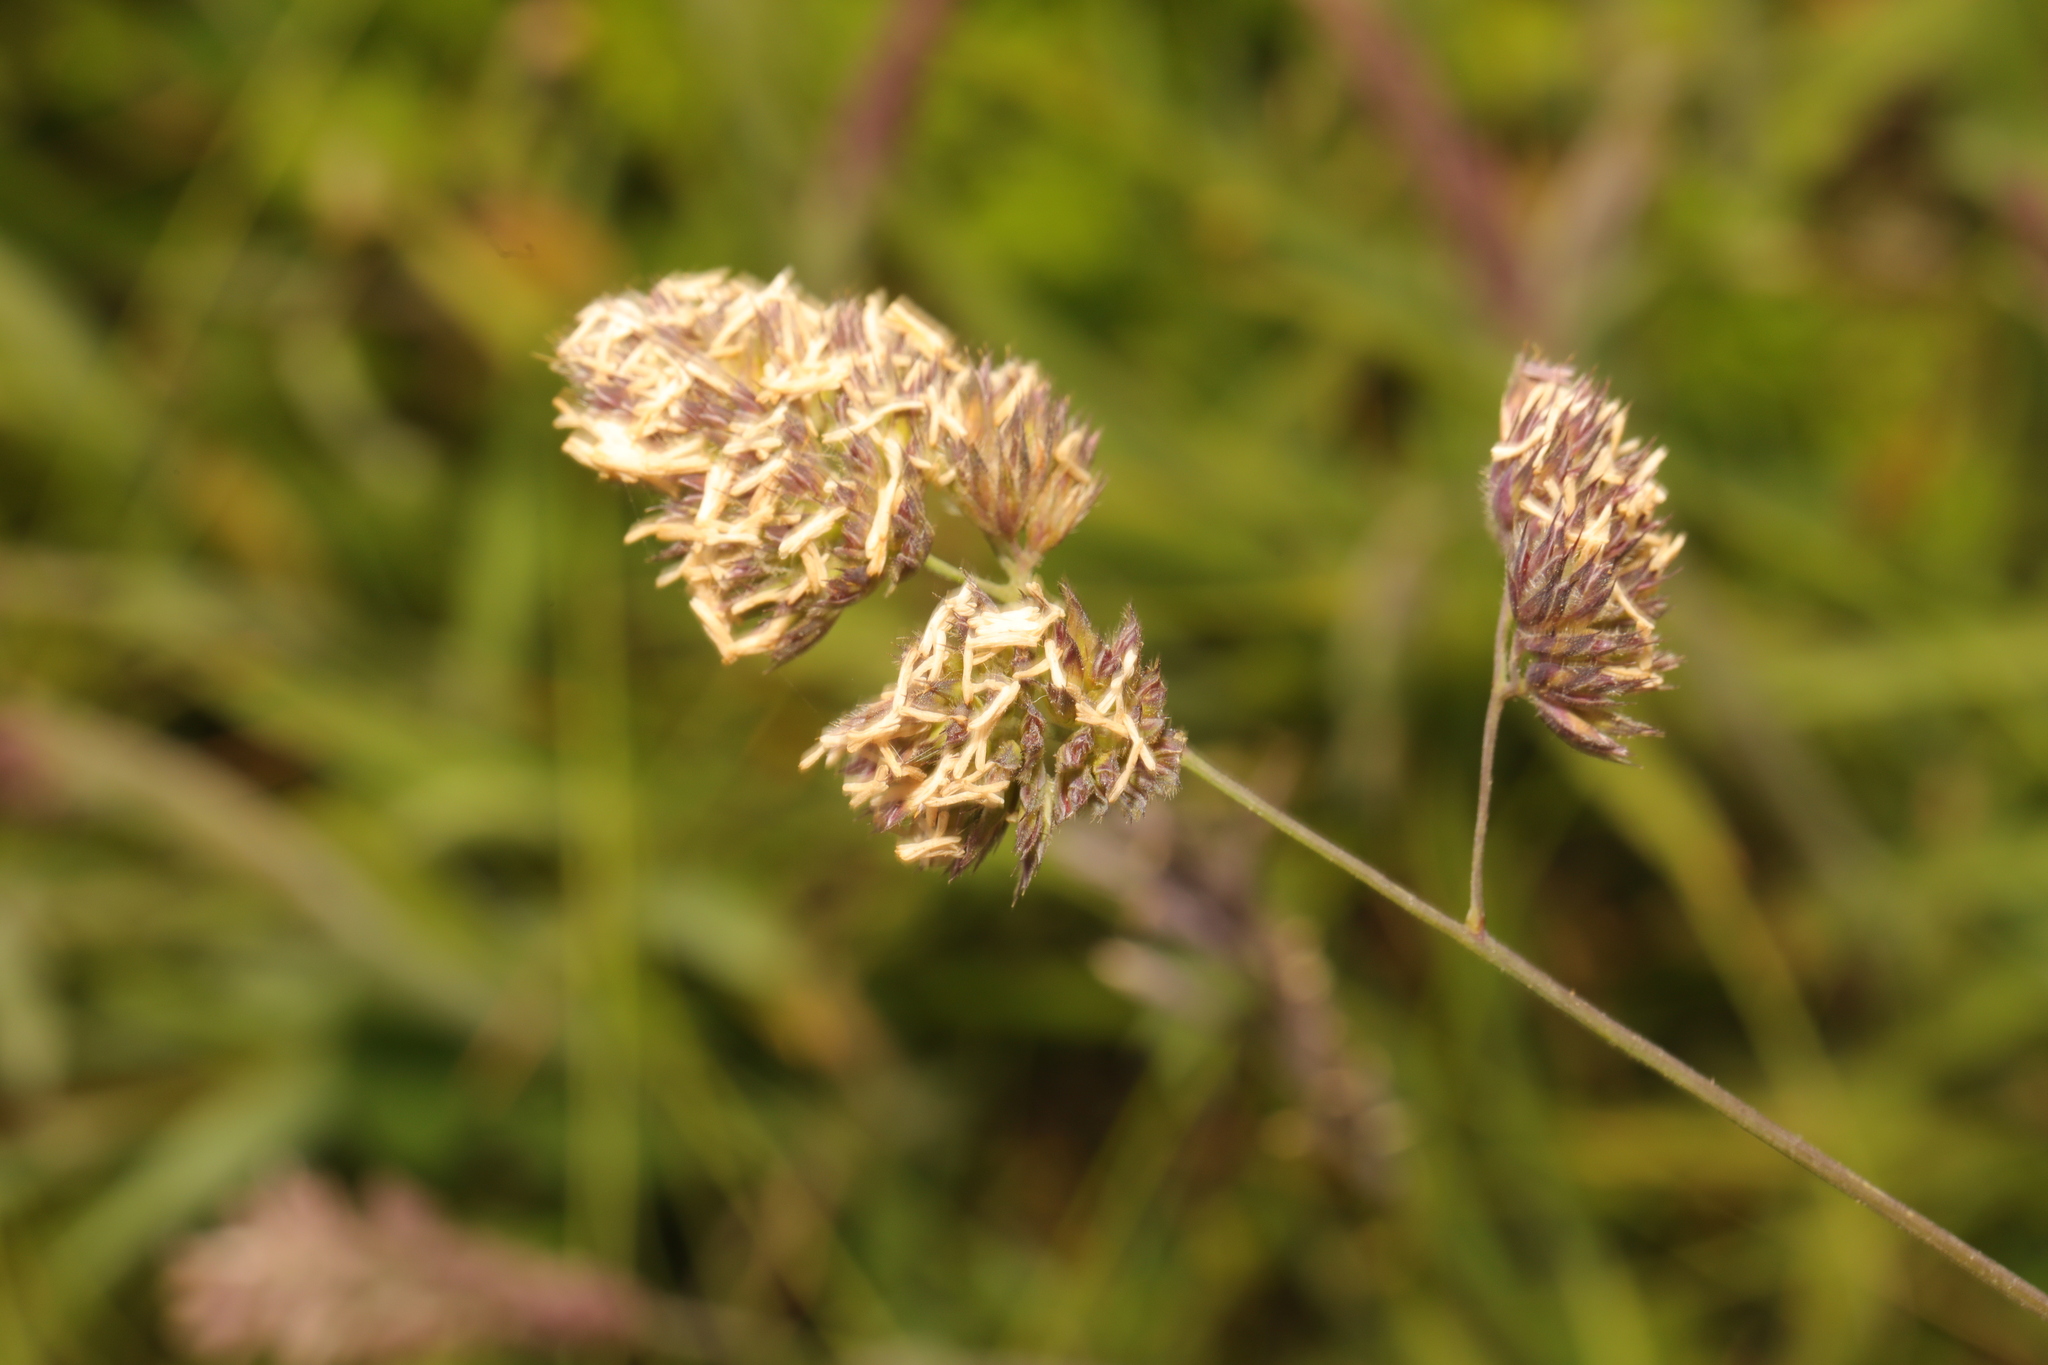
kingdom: Plantae
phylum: Tracheophyta
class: Liliopsida
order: Poales
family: Poaceae
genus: Dactylis
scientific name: Dactylis glomerata
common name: Orchardgrass
